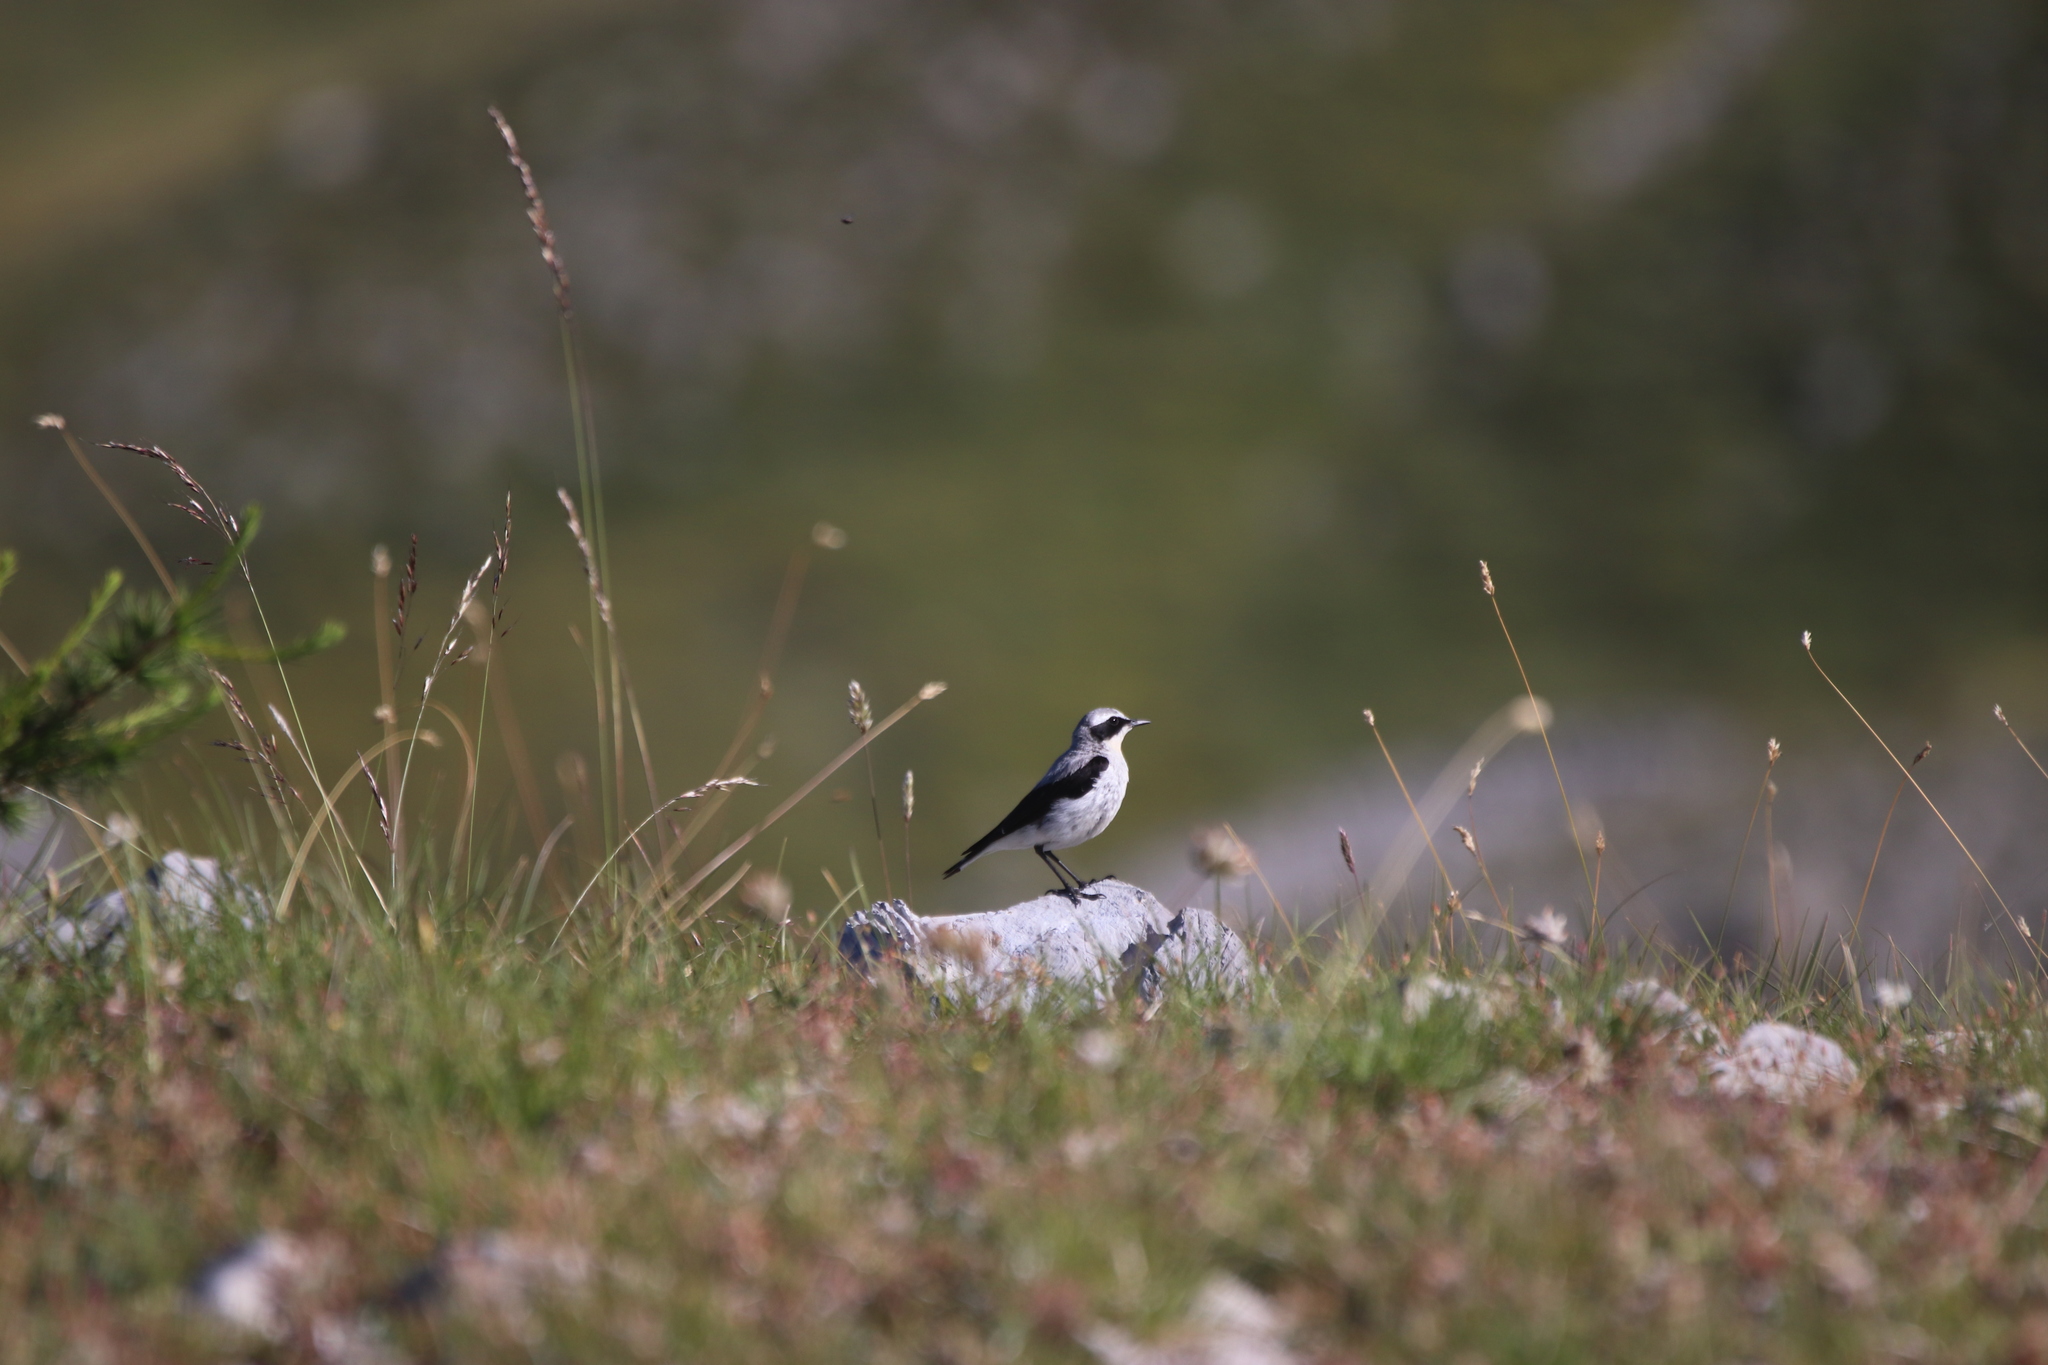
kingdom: Animalia
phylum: Chordata
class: Aves
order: Passeriformes
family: Muscicapidae
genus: Oenanthe
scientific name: Oenanthe oenanthe
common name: Northern wheatear
